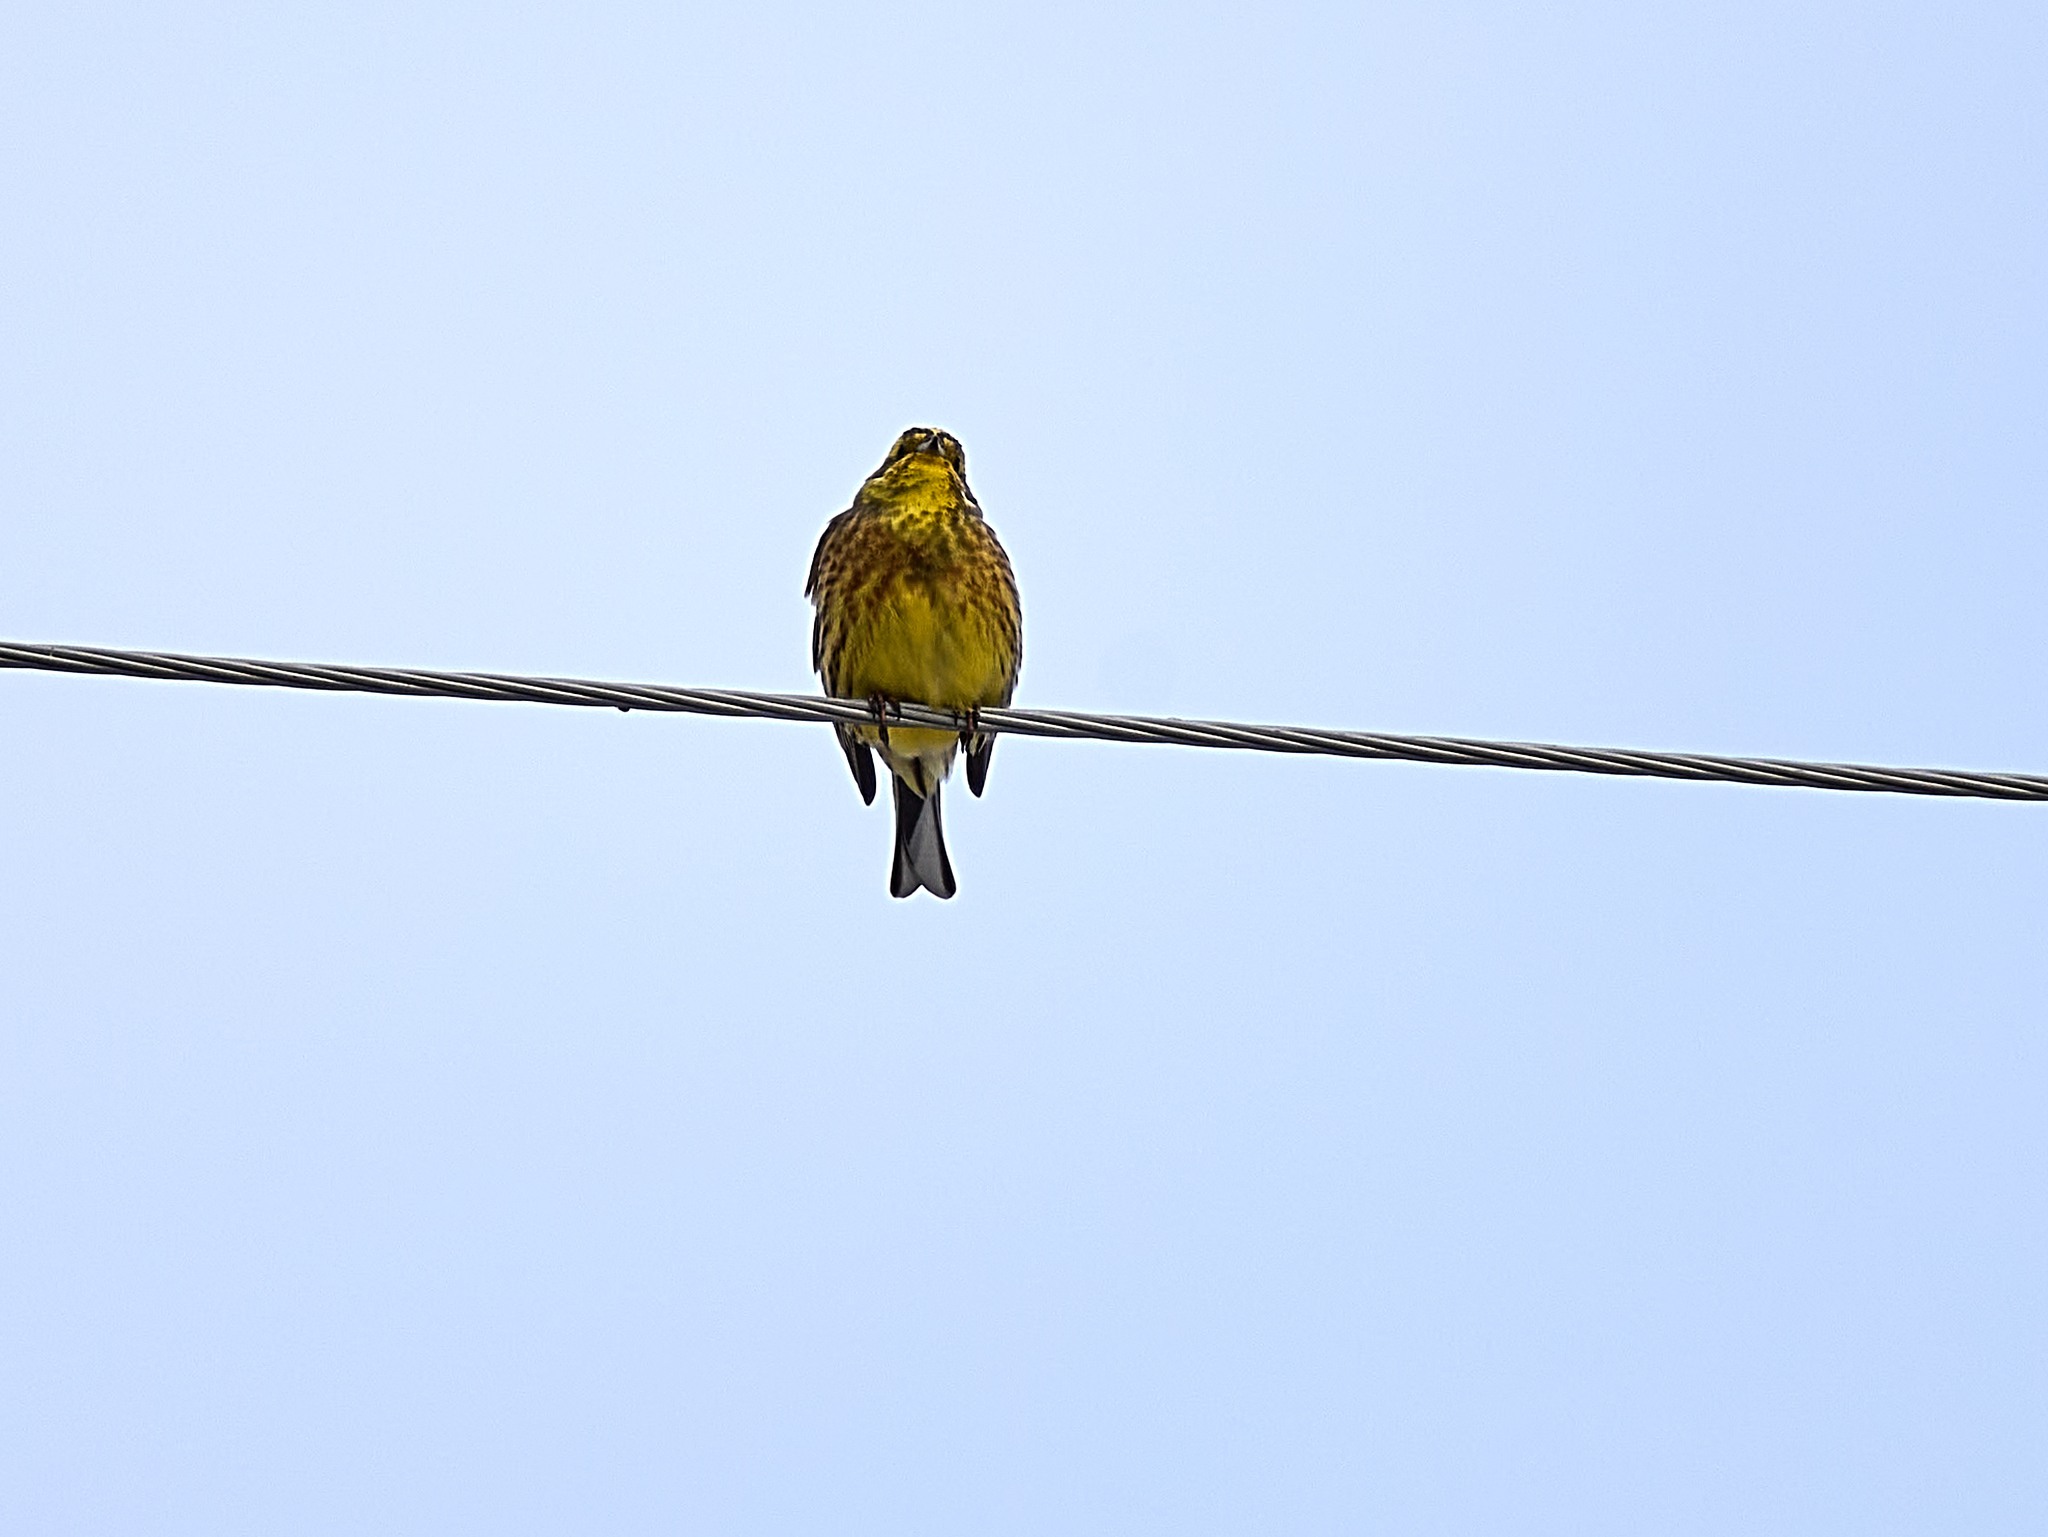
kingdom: Animalia
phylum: Chordata
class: Aves
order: Passeriformes
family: Emberizidae
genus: Emberiza
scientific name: Emberiza citrinella
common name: Yellowhammer
